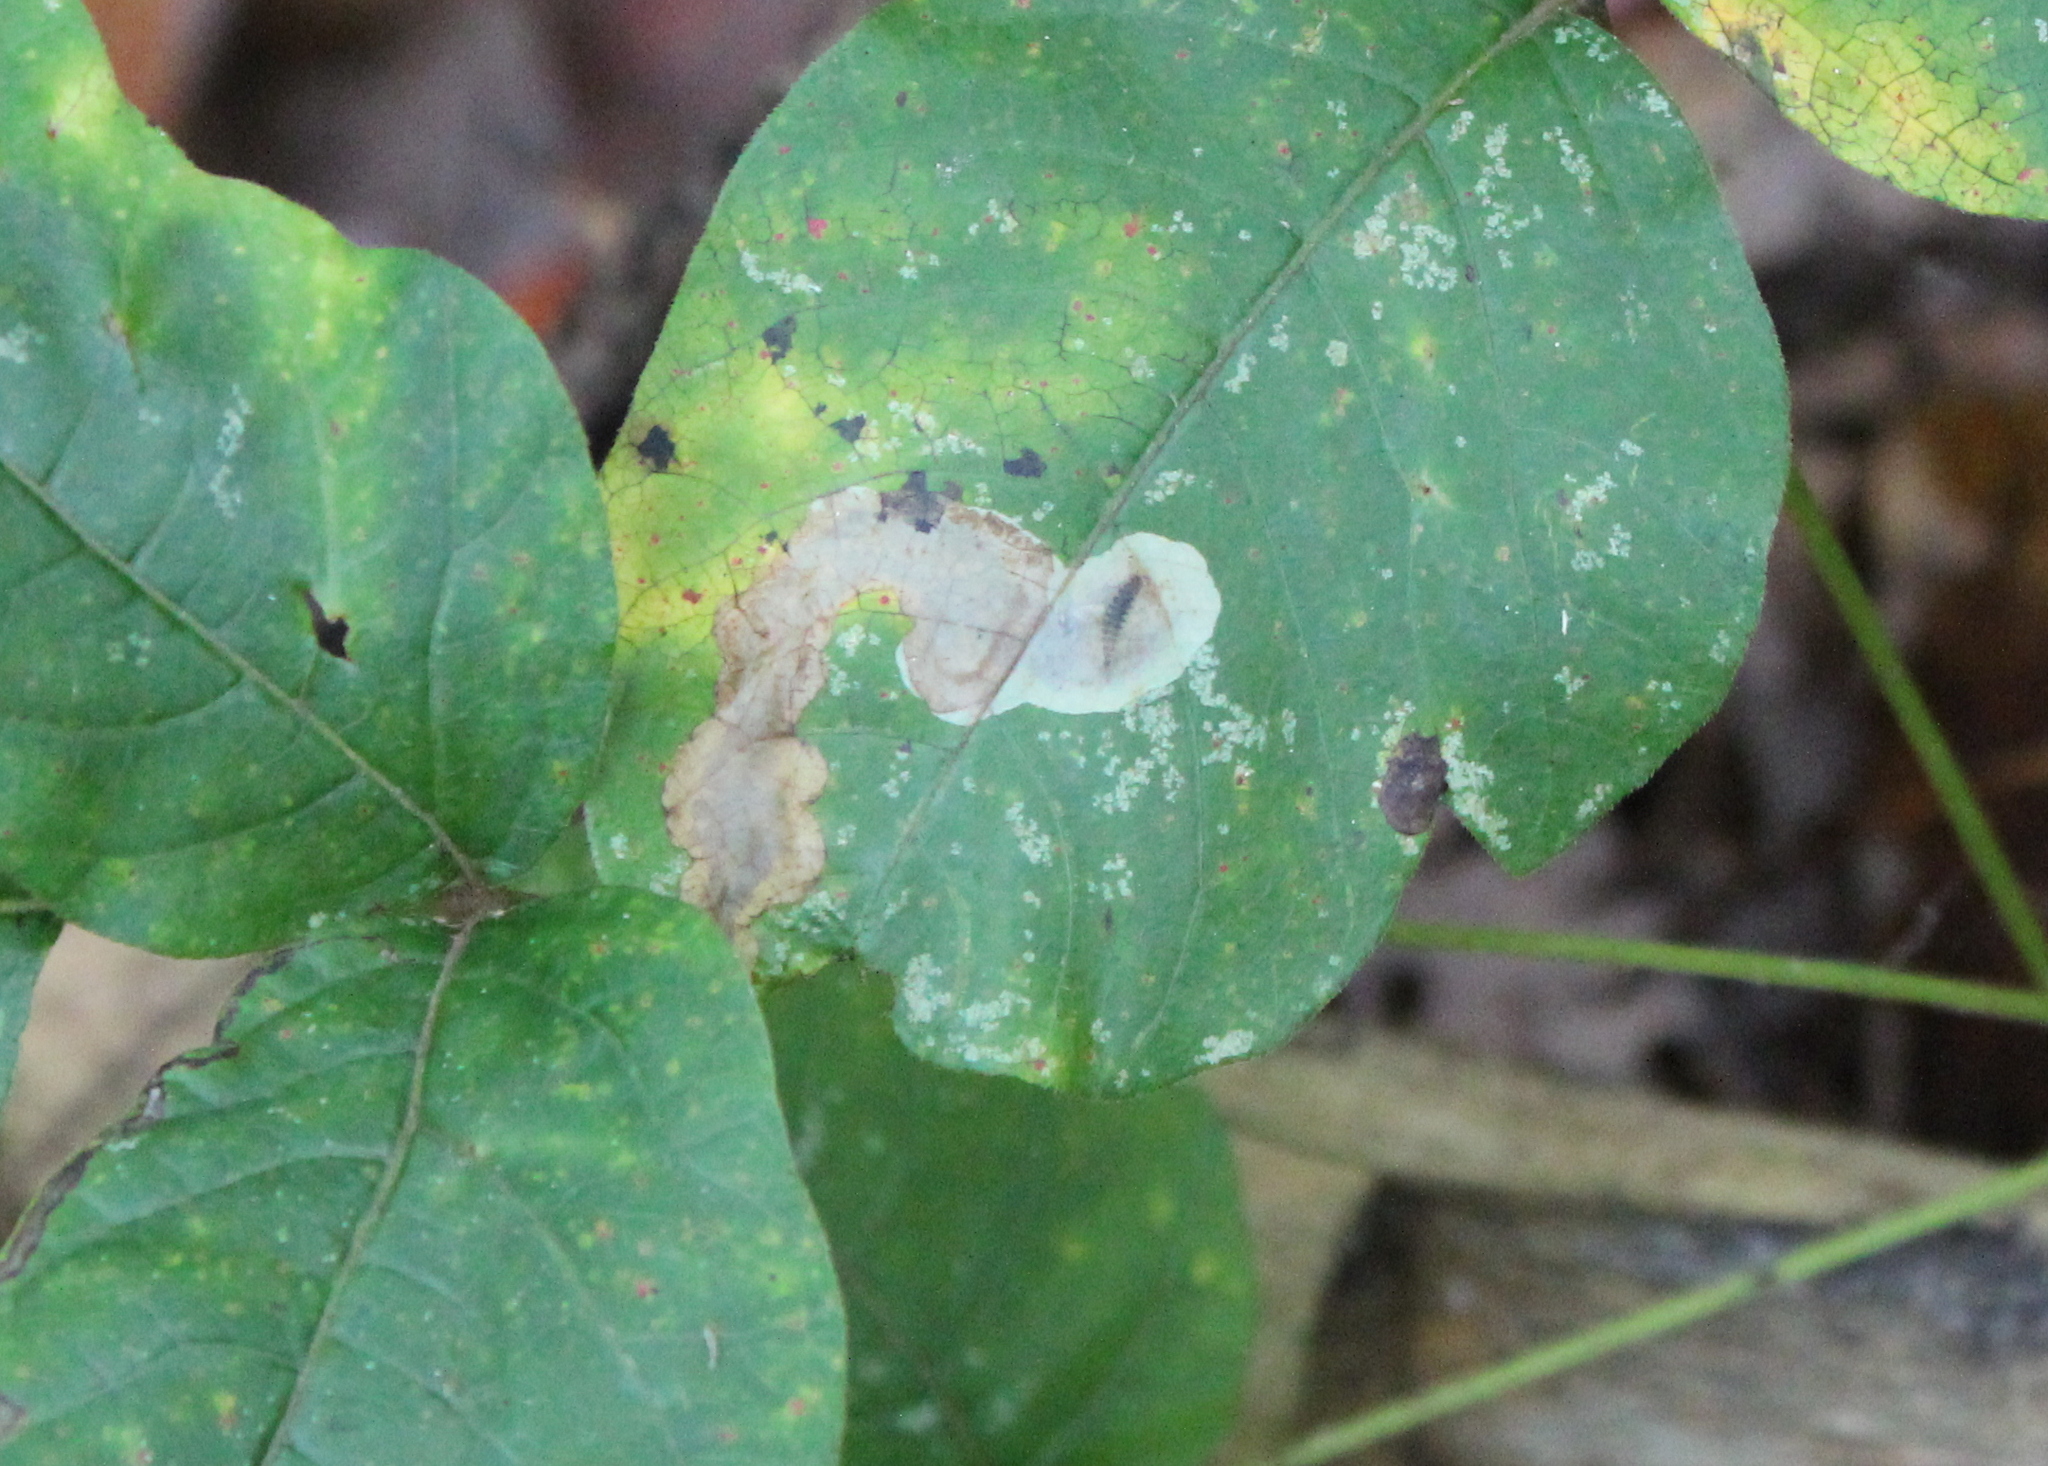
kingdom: Animalia
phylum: Arthropoda
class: Insecta
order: Lepidoptera
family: Gracillariidae
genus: Cameraria
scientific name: Cameraria guttifinitella
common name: Poison ivy leaf-miner moth
